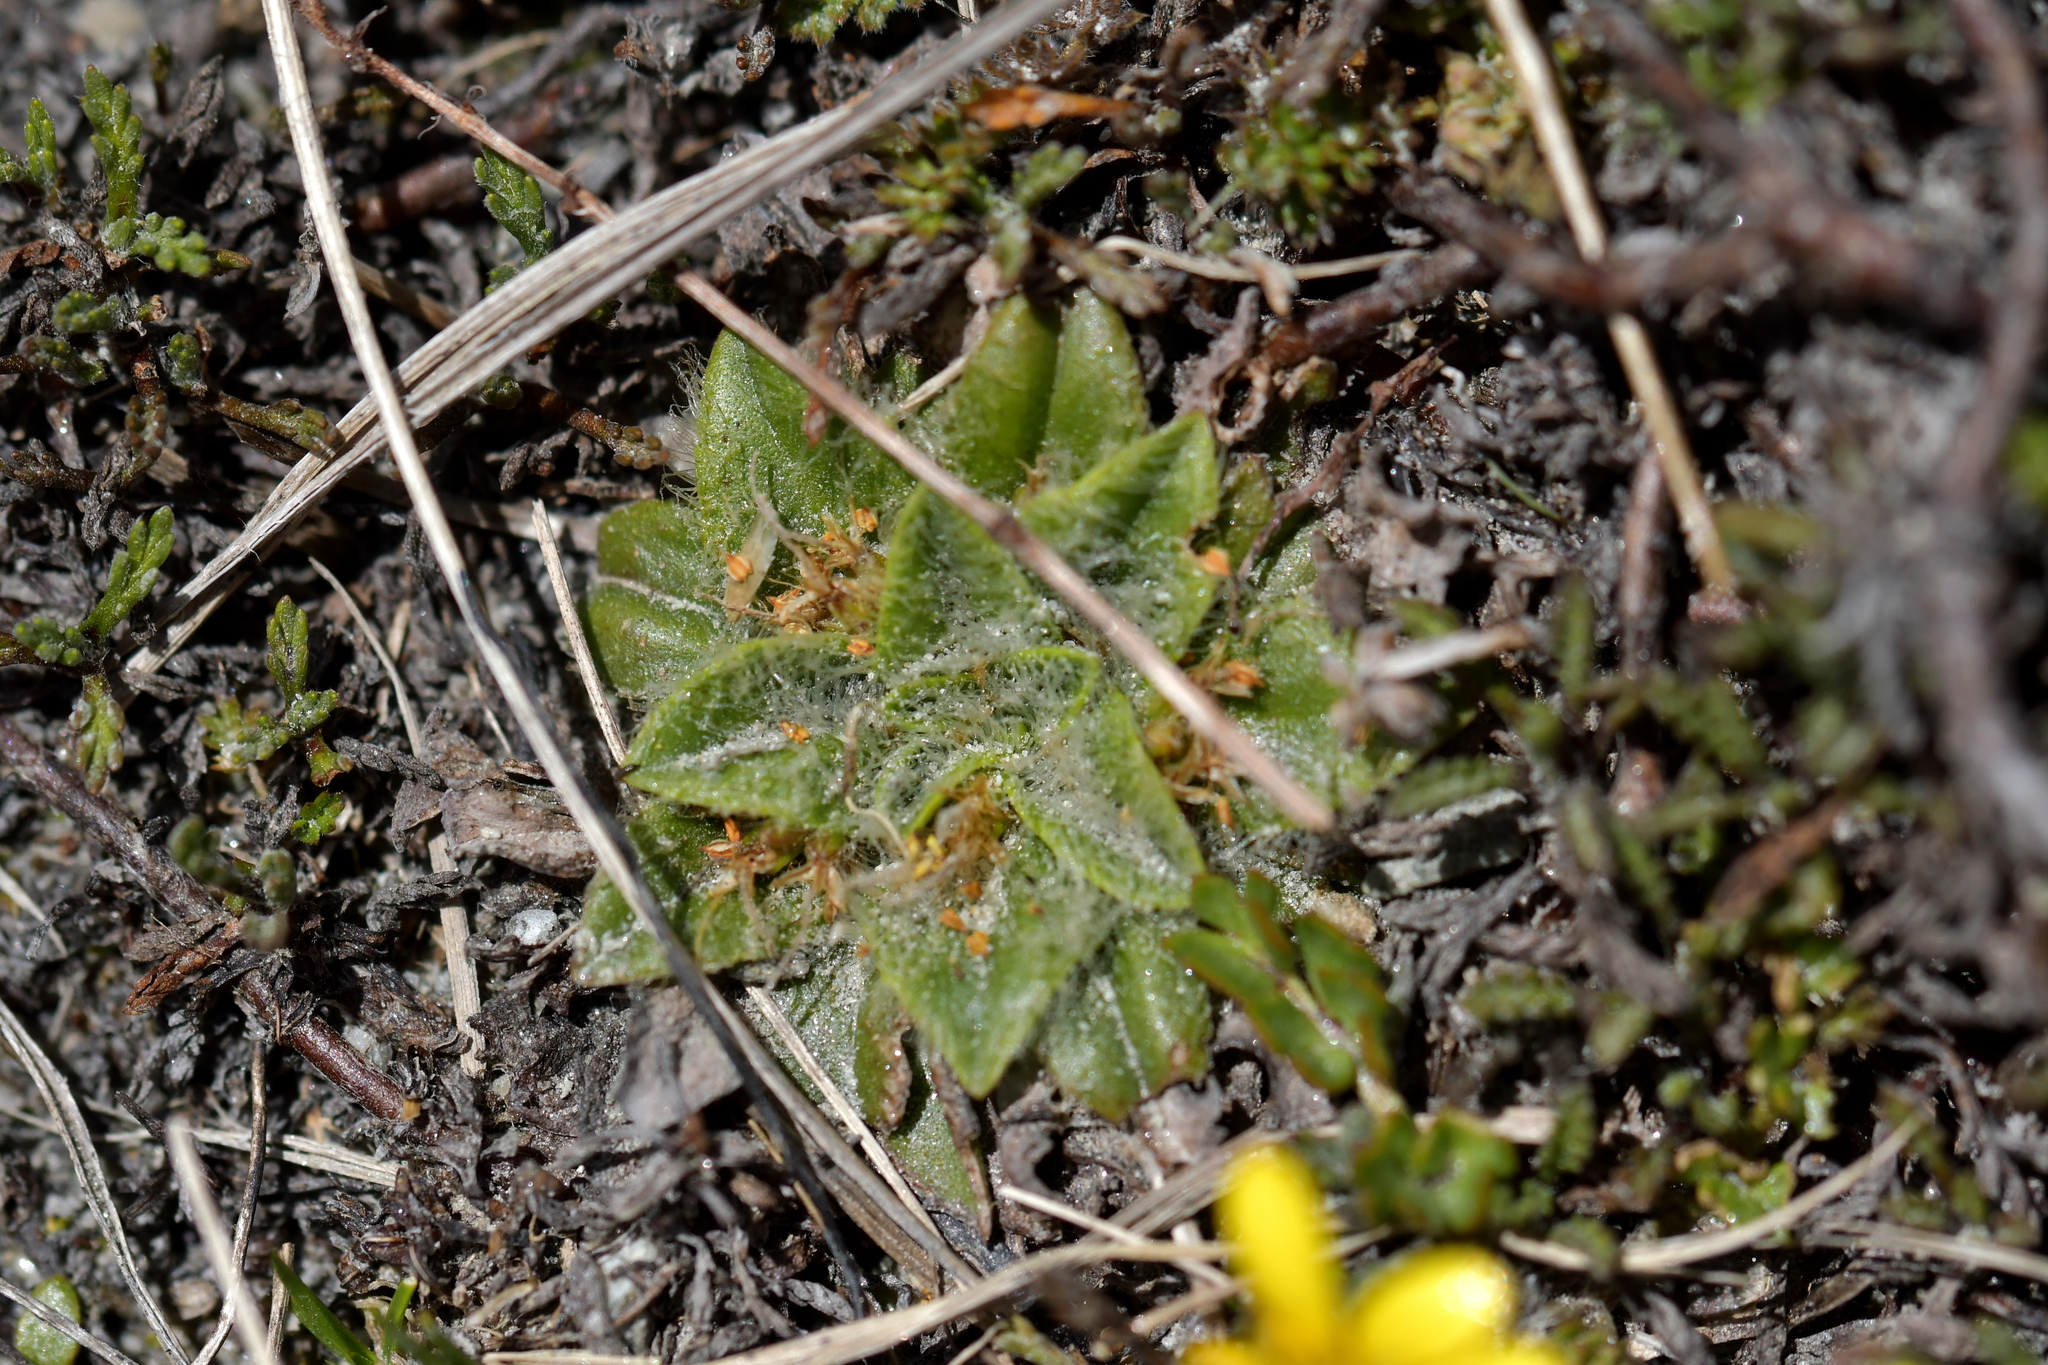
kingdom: Plantae
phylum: Tracheophyta
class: Magnoliopsida
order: Lamiales
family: Plantaginaceae
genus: Plantago
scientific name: Plantago lanigera
